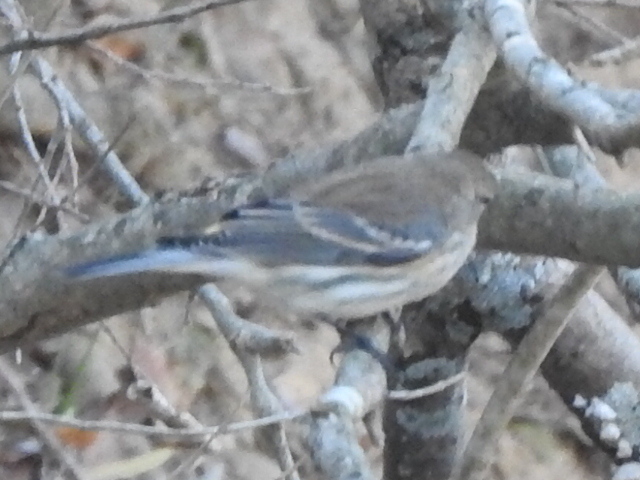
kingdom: Animalia
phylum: Chordata
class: Aves
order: Passeriformes
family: Parulidae
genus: Setophaga
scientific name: Setophaga coronata
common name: Myrtle warbler
